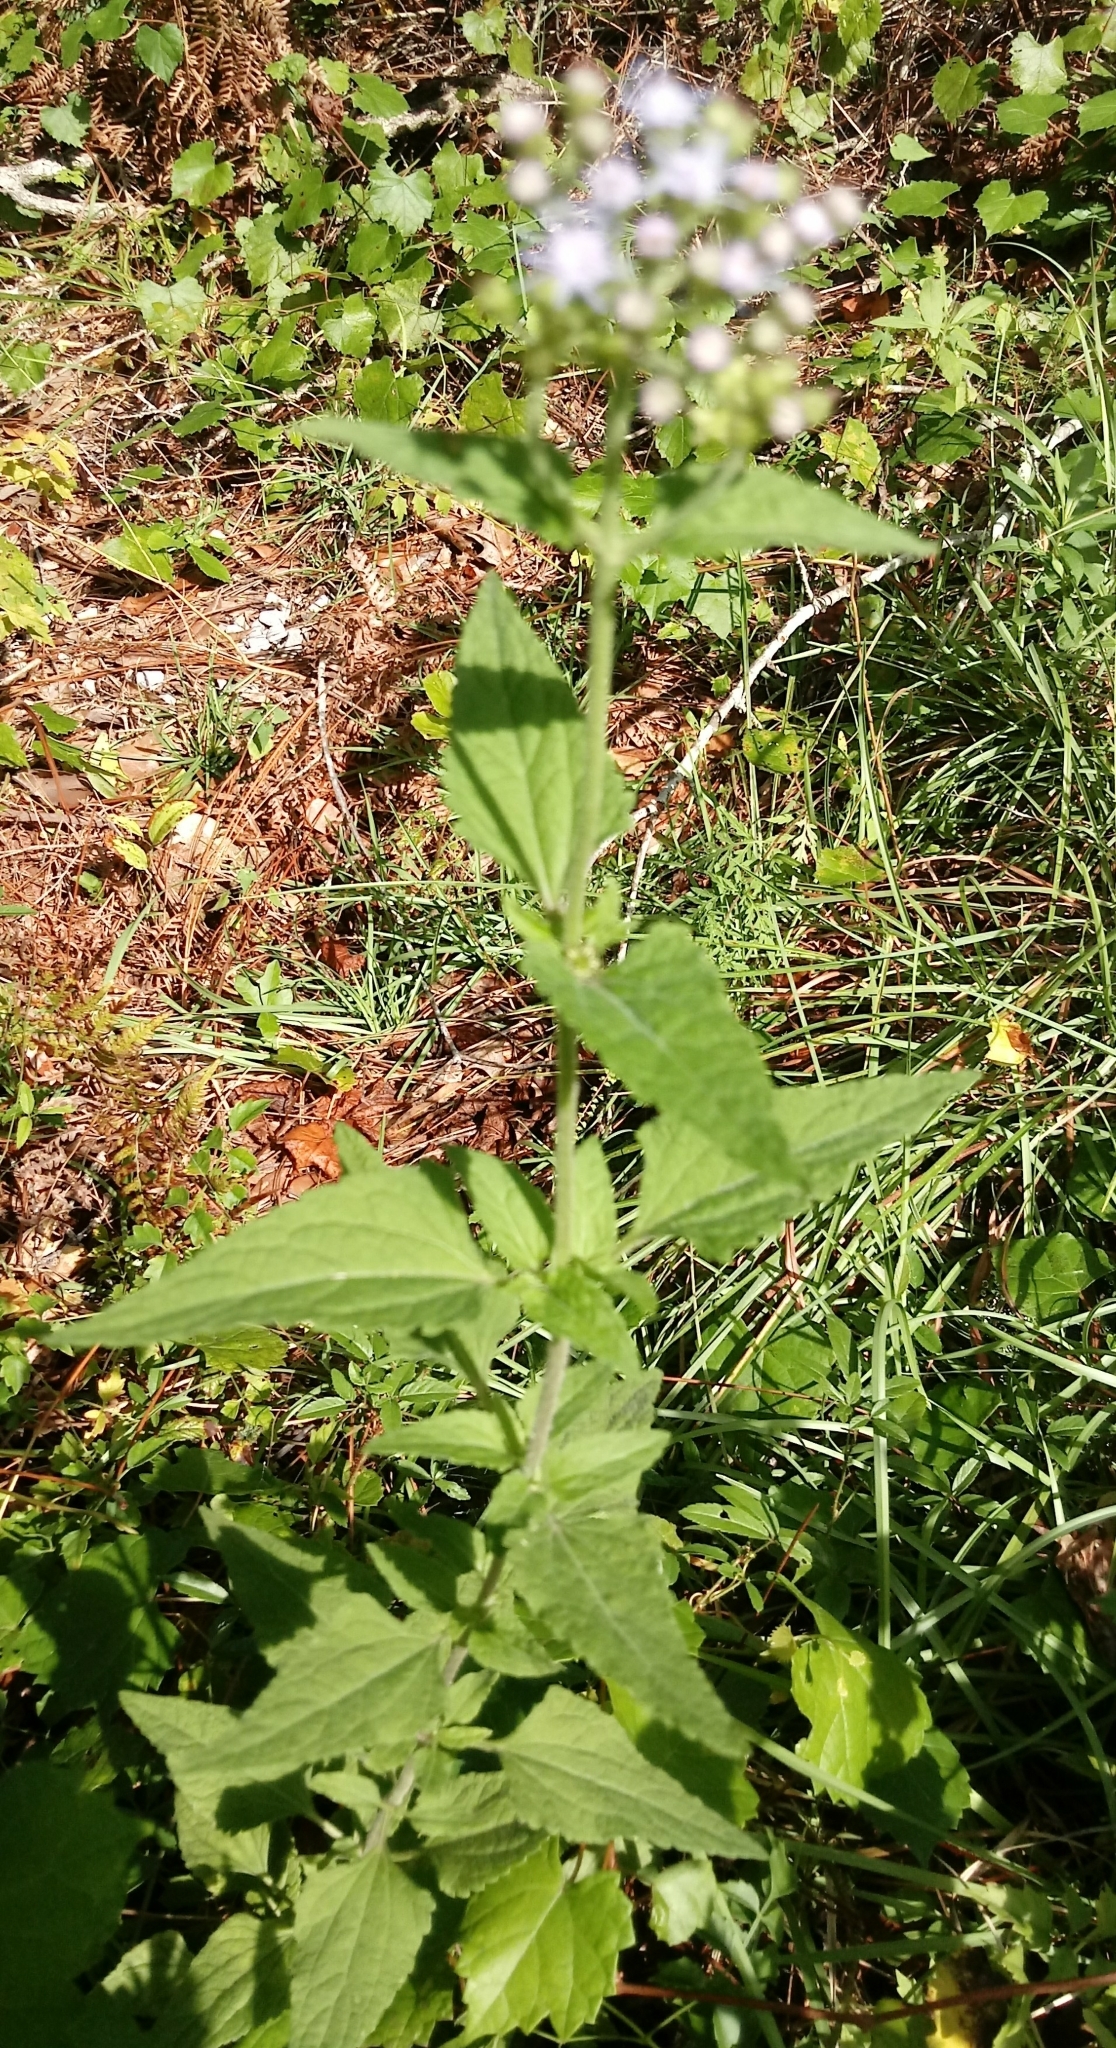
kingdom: Plantae
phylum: Tracheophyta
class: Magnoliopsida
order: Asterales
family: Asteraceae
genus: Conoclinium
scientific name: Conoclinium coelestinum
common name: Blue mistflower
